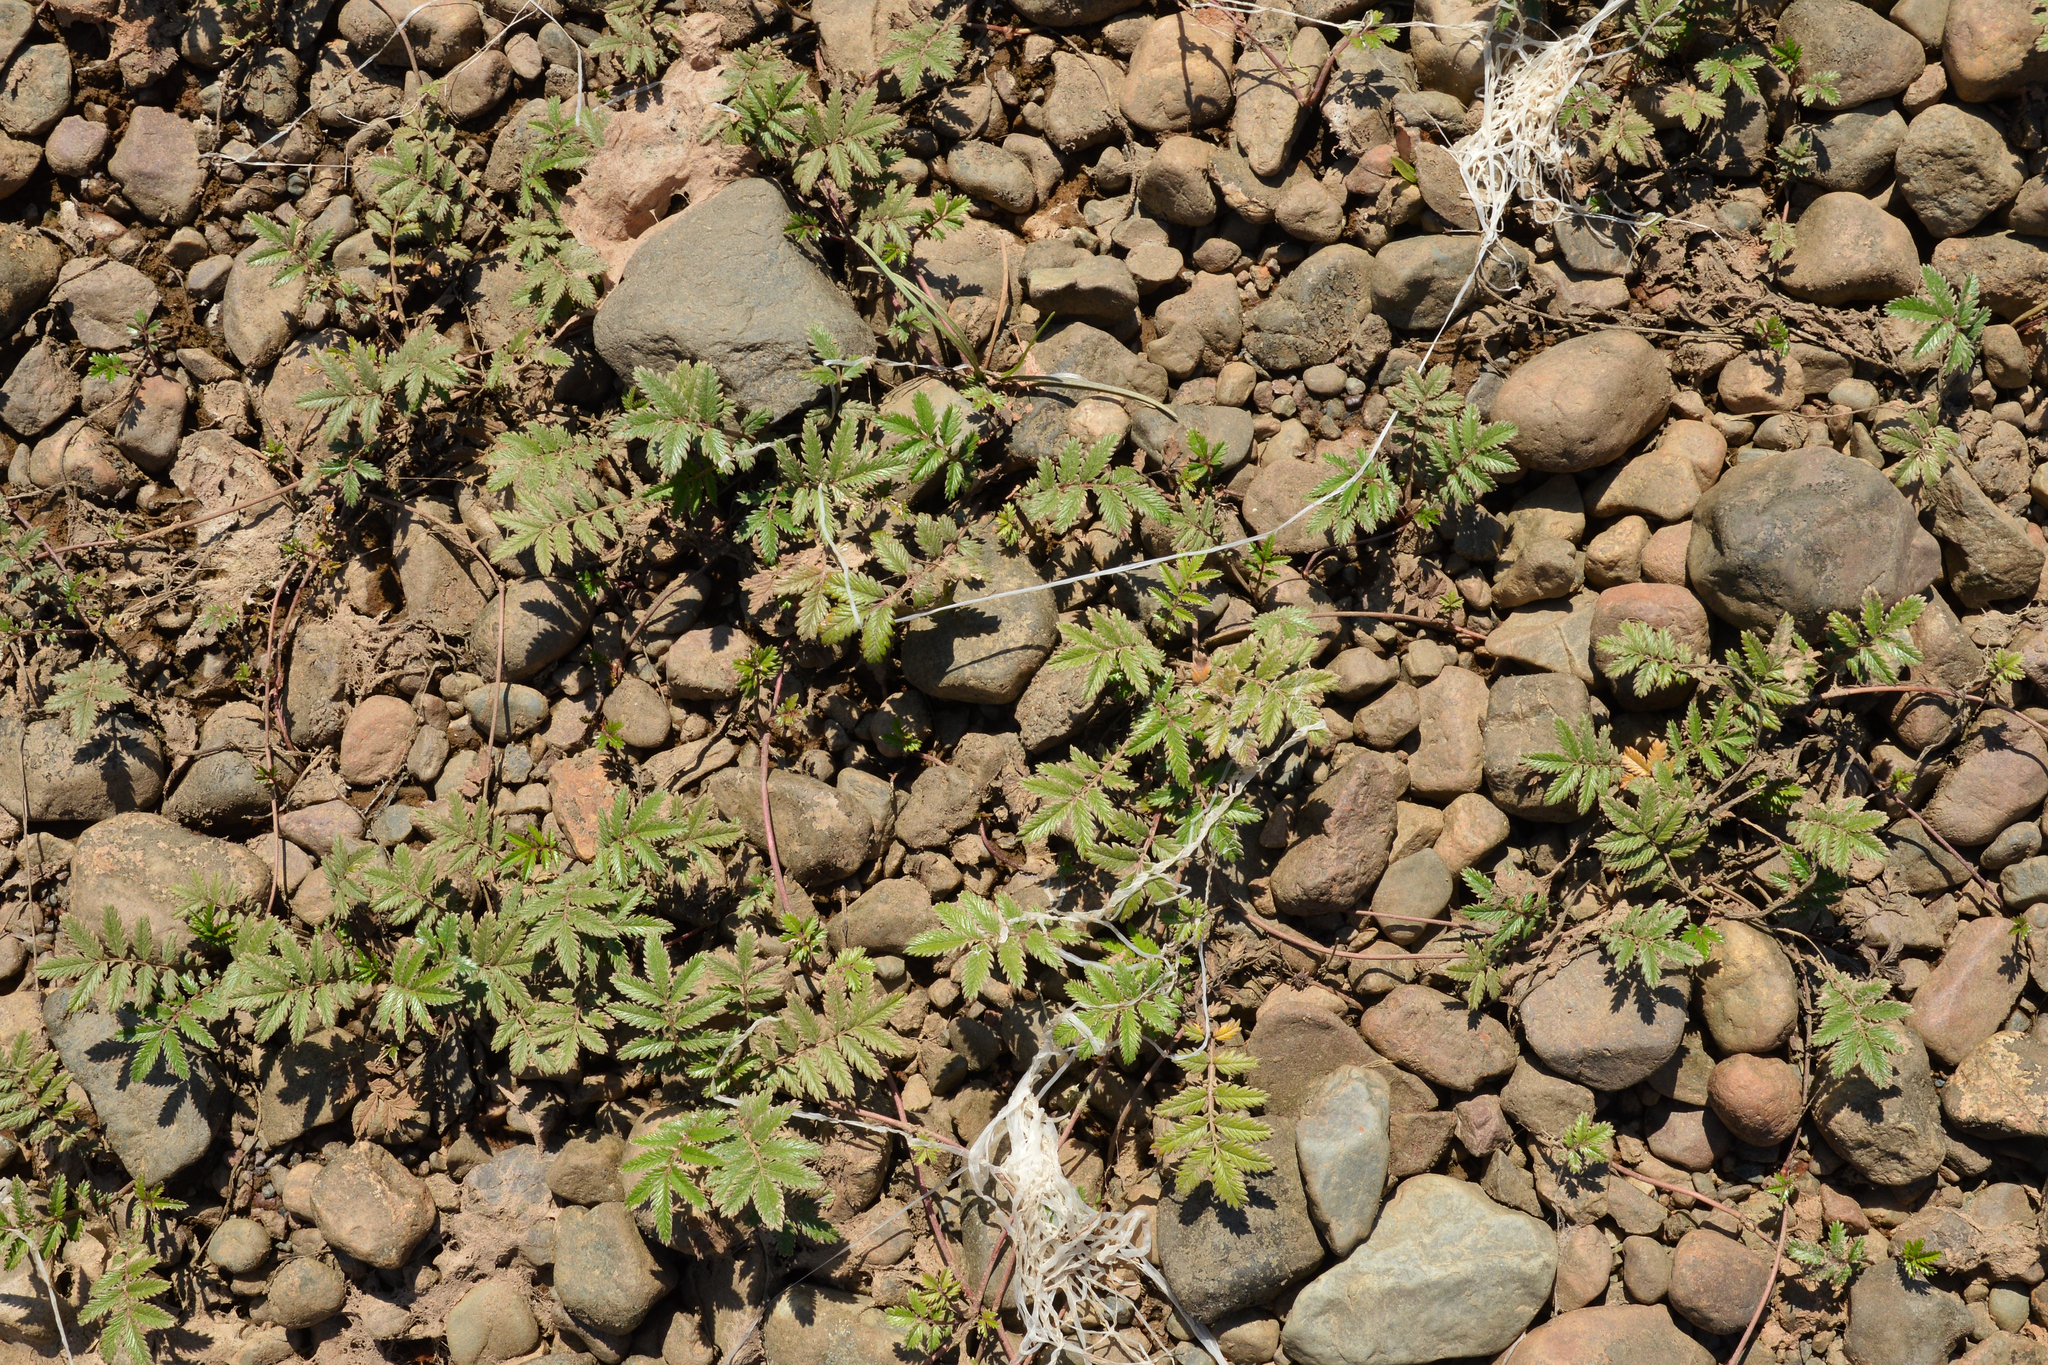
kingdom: Plantae
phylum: Tracheophyta
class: Magnoliopsida
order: Rosales
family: Rosaceae
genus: Argentina
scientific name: Argentina anserina
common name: Common silverweed
